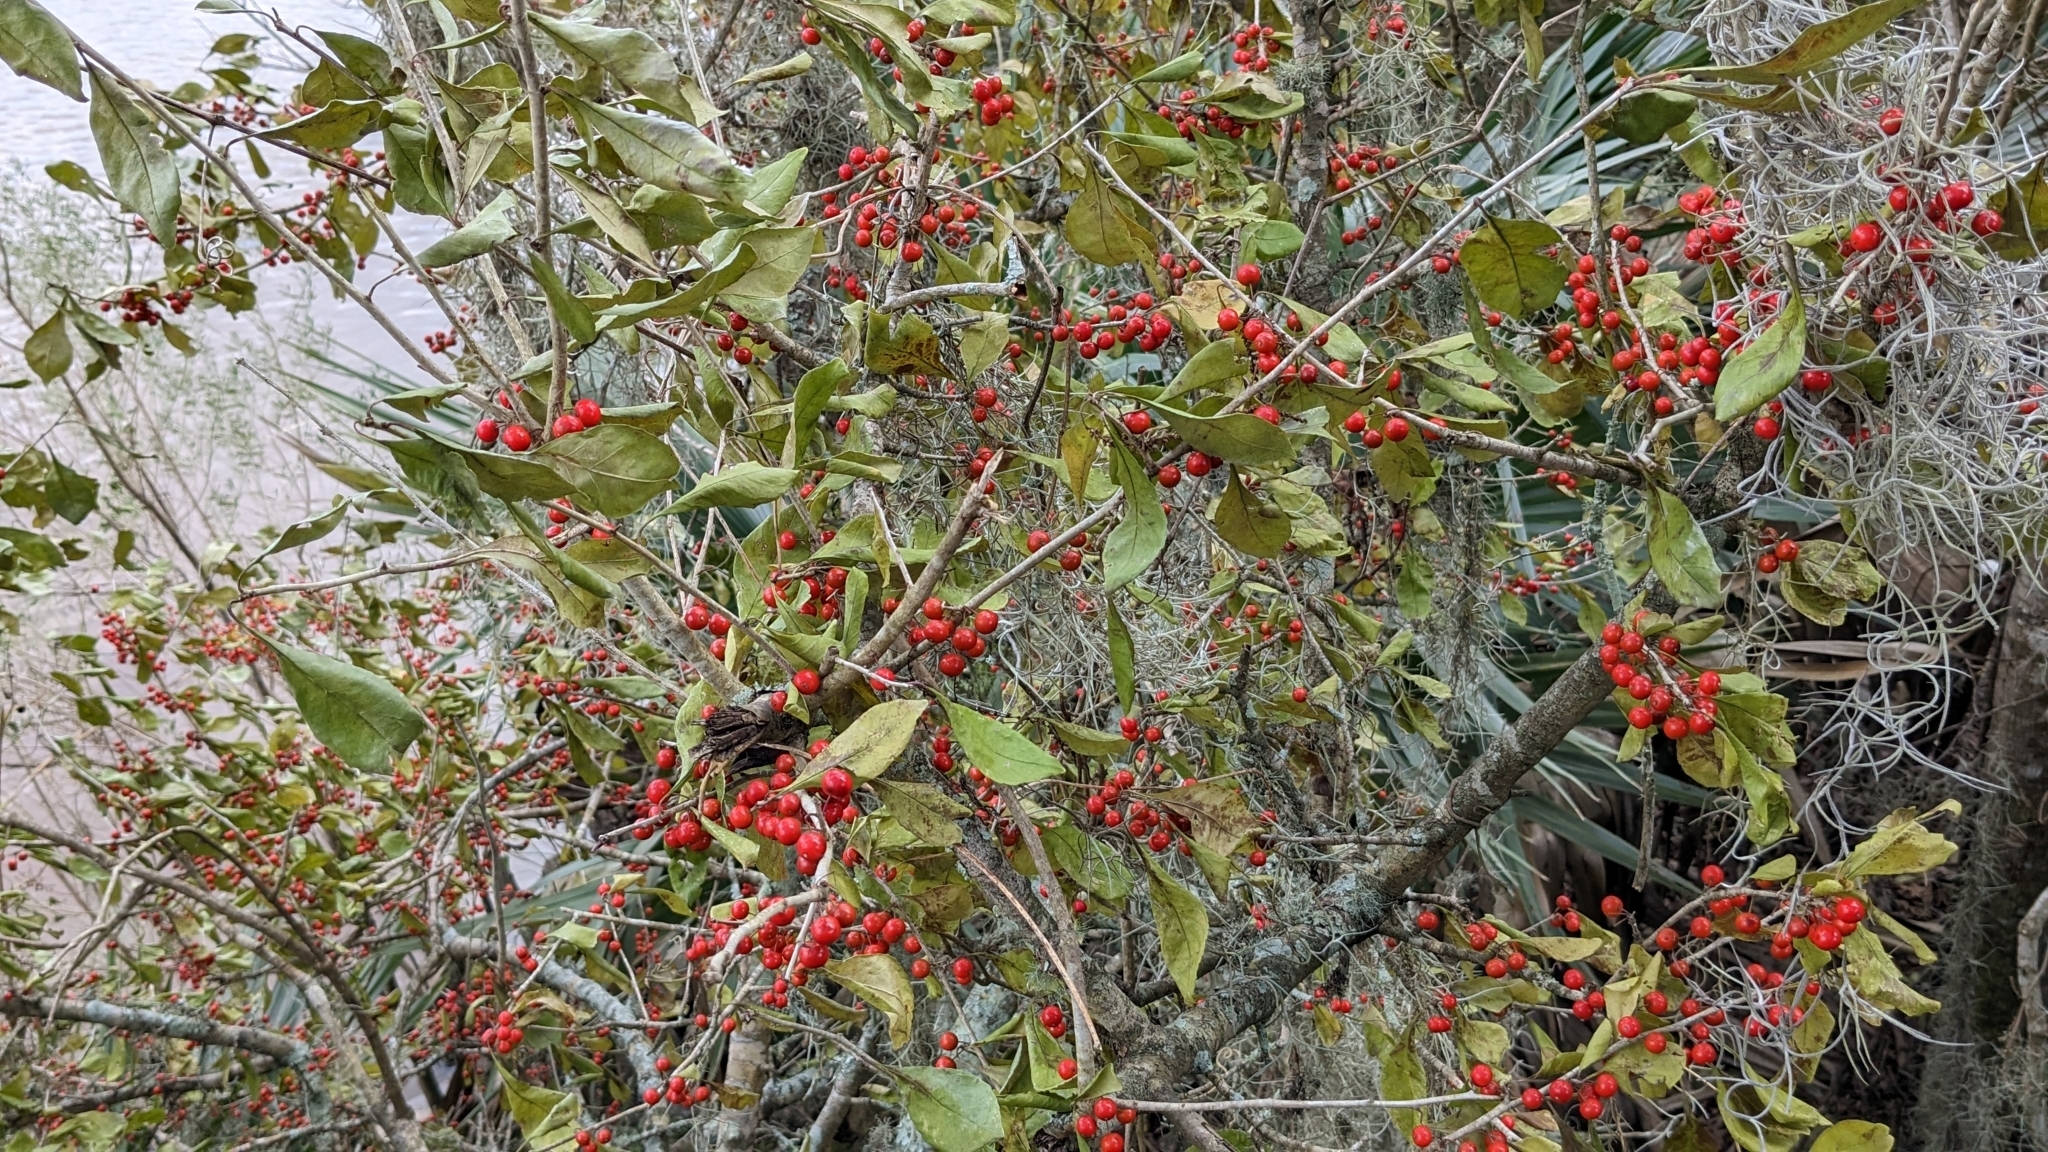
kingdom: Plantae
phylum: Tracheophyta
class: Magnoliopsida
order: Aquifoliales
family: Aquifoliaceae
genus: Ilex
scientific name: Ilex decidua
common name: Possum-haw
